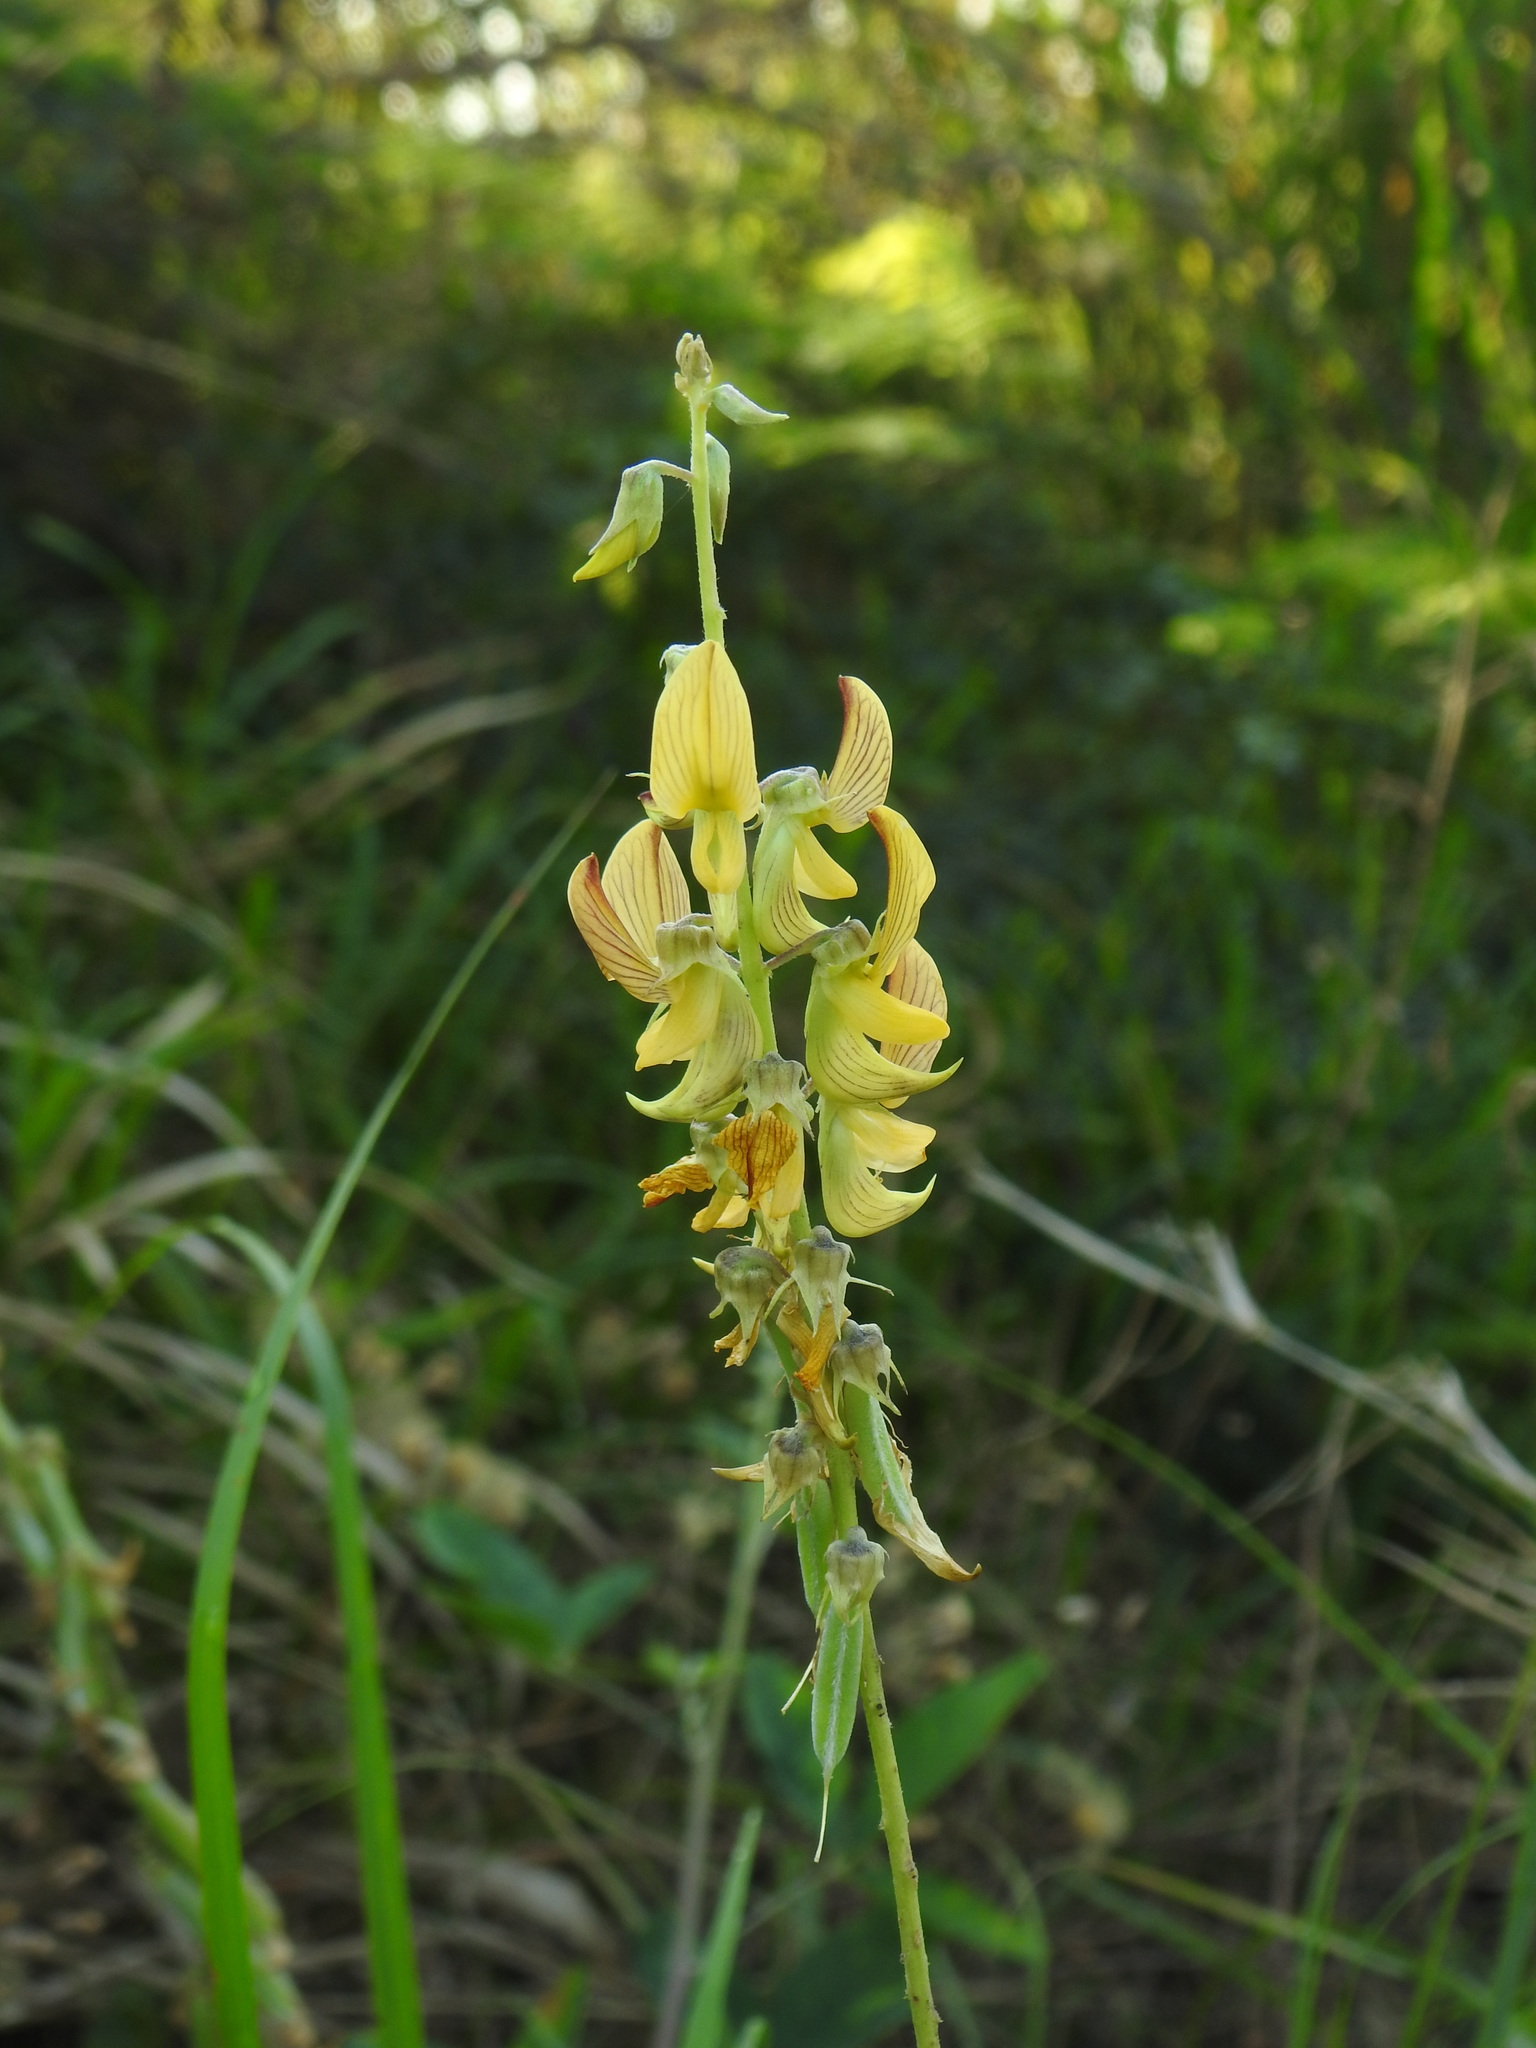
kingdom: Plantae
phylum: Tracheophyta
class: Magnoliopsida
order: Fabales
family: Fabaceae
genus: Crotalaria
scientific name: Crotalaria pallida
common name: Smooth rattlebox
